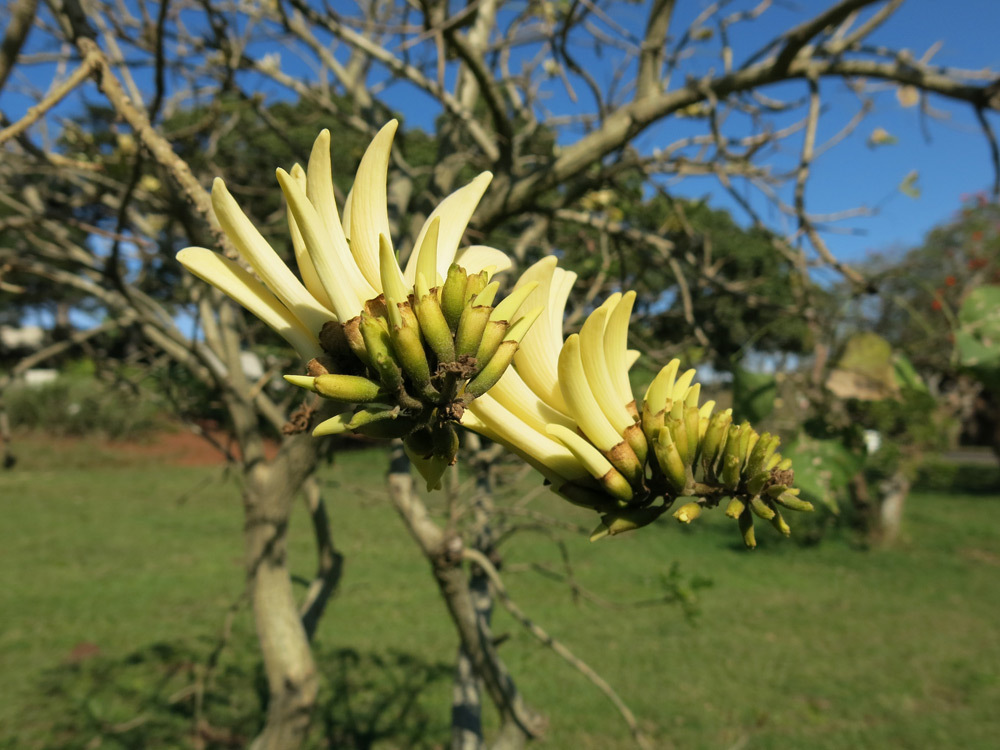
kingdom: Plantae
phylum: Tracheophyta
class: Magnoliopsida
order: Fabales
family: Fabaceae
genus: Erythrina
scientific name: Erythrina lysistemon
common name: Common coral tree
